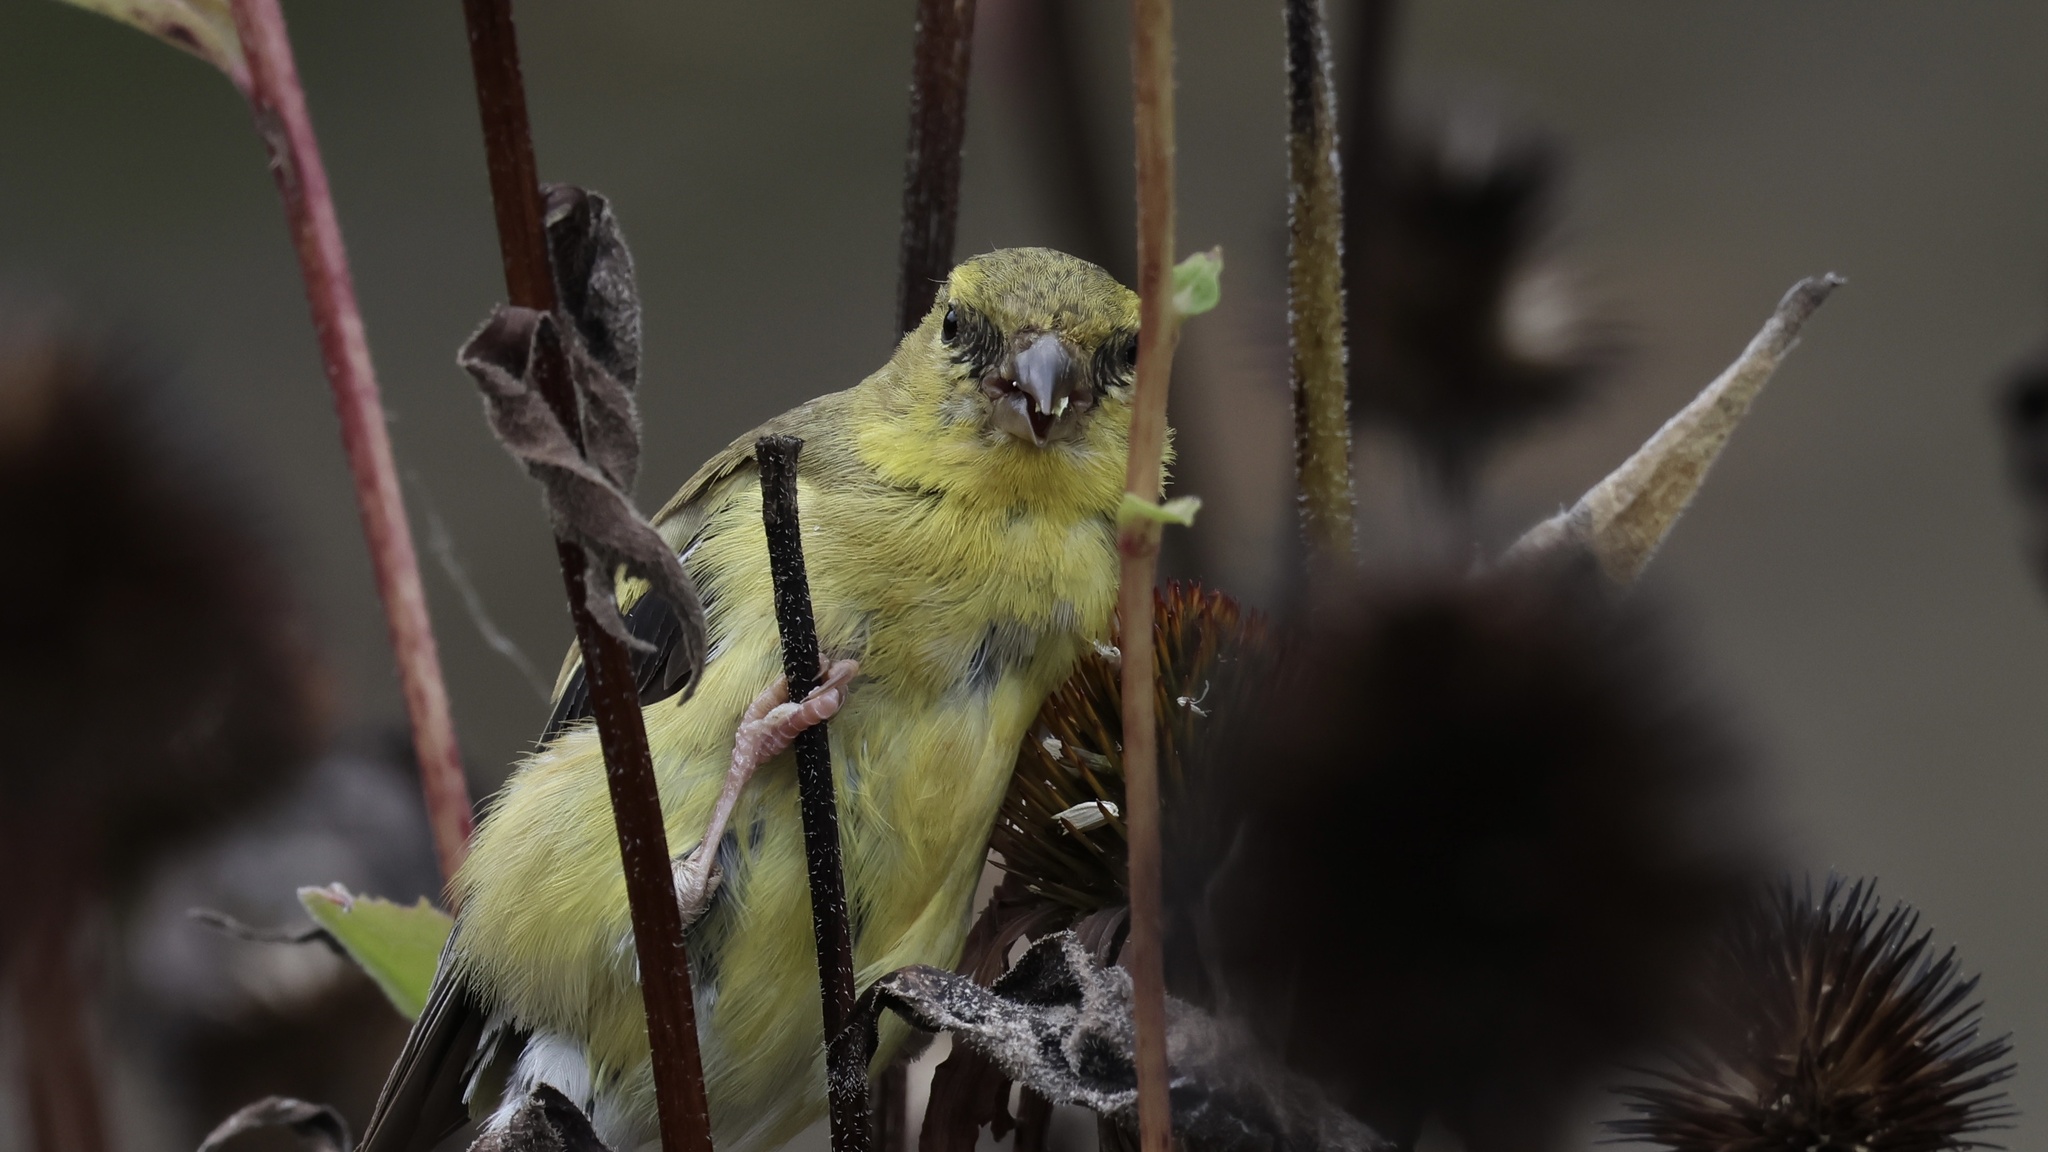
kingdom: Animalia
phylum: Chordata
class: Aves
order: Passeriformes
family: Fringillidae
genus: Spinus
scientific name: Spinus tristis
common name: American goldfinch
